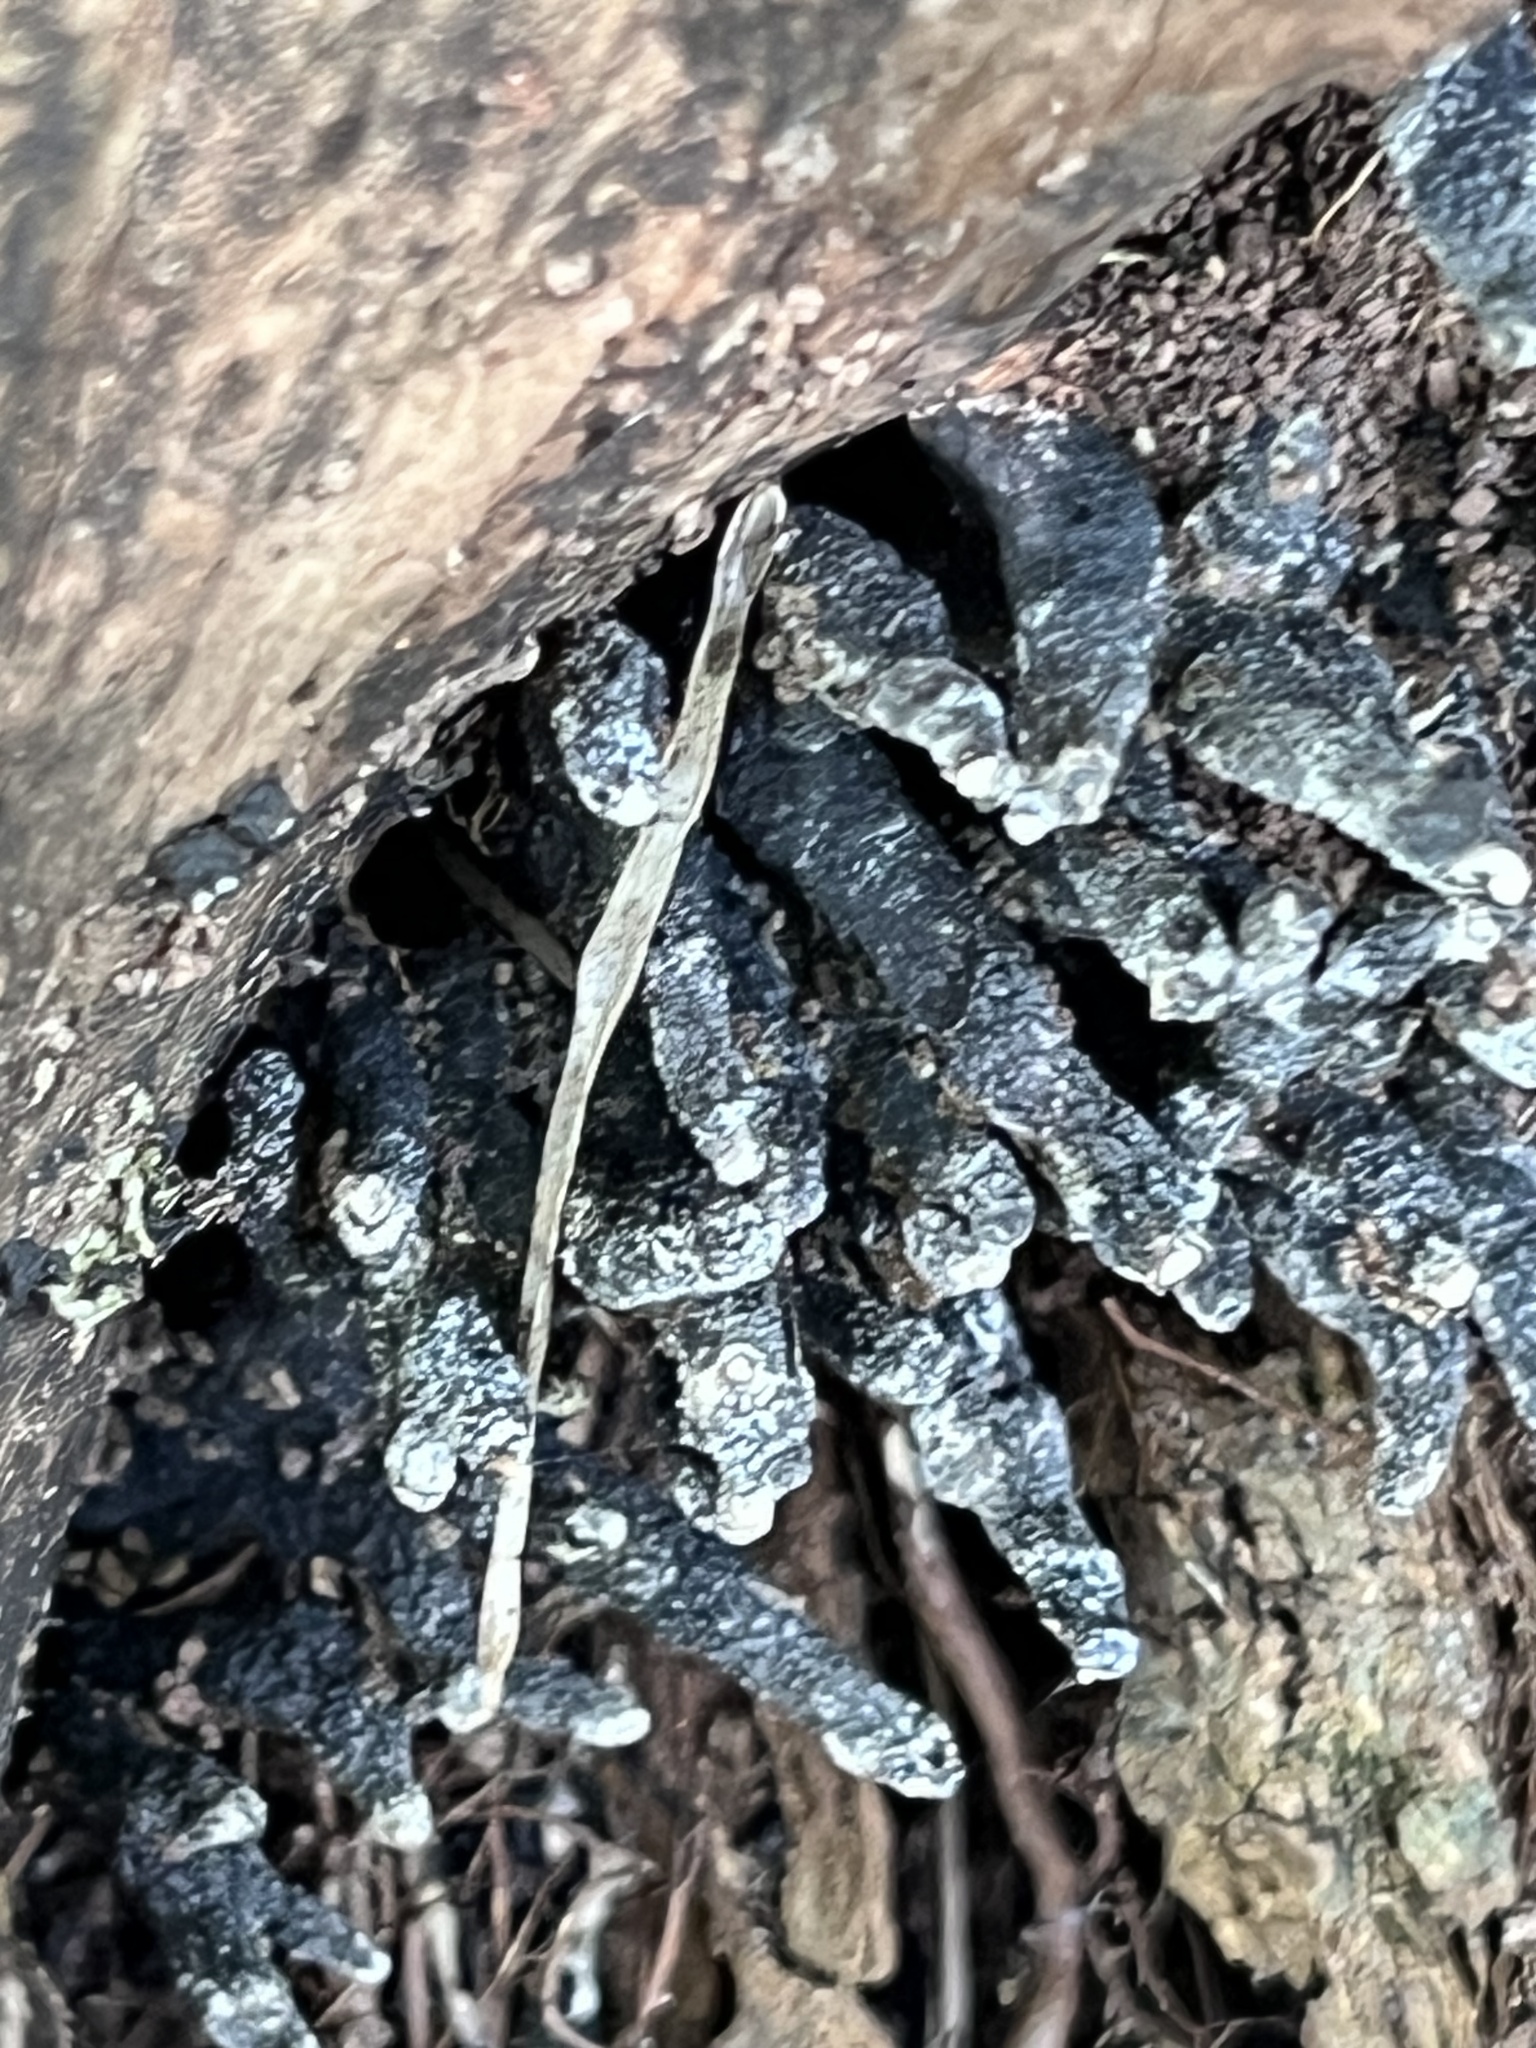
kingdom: Fungi
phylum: Ascomycota
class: Sordariomycetes
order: Xylariales
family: Xylariaceae
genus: Xylaria
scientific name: Xylaria polymorpha
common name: Dead man's fingers
